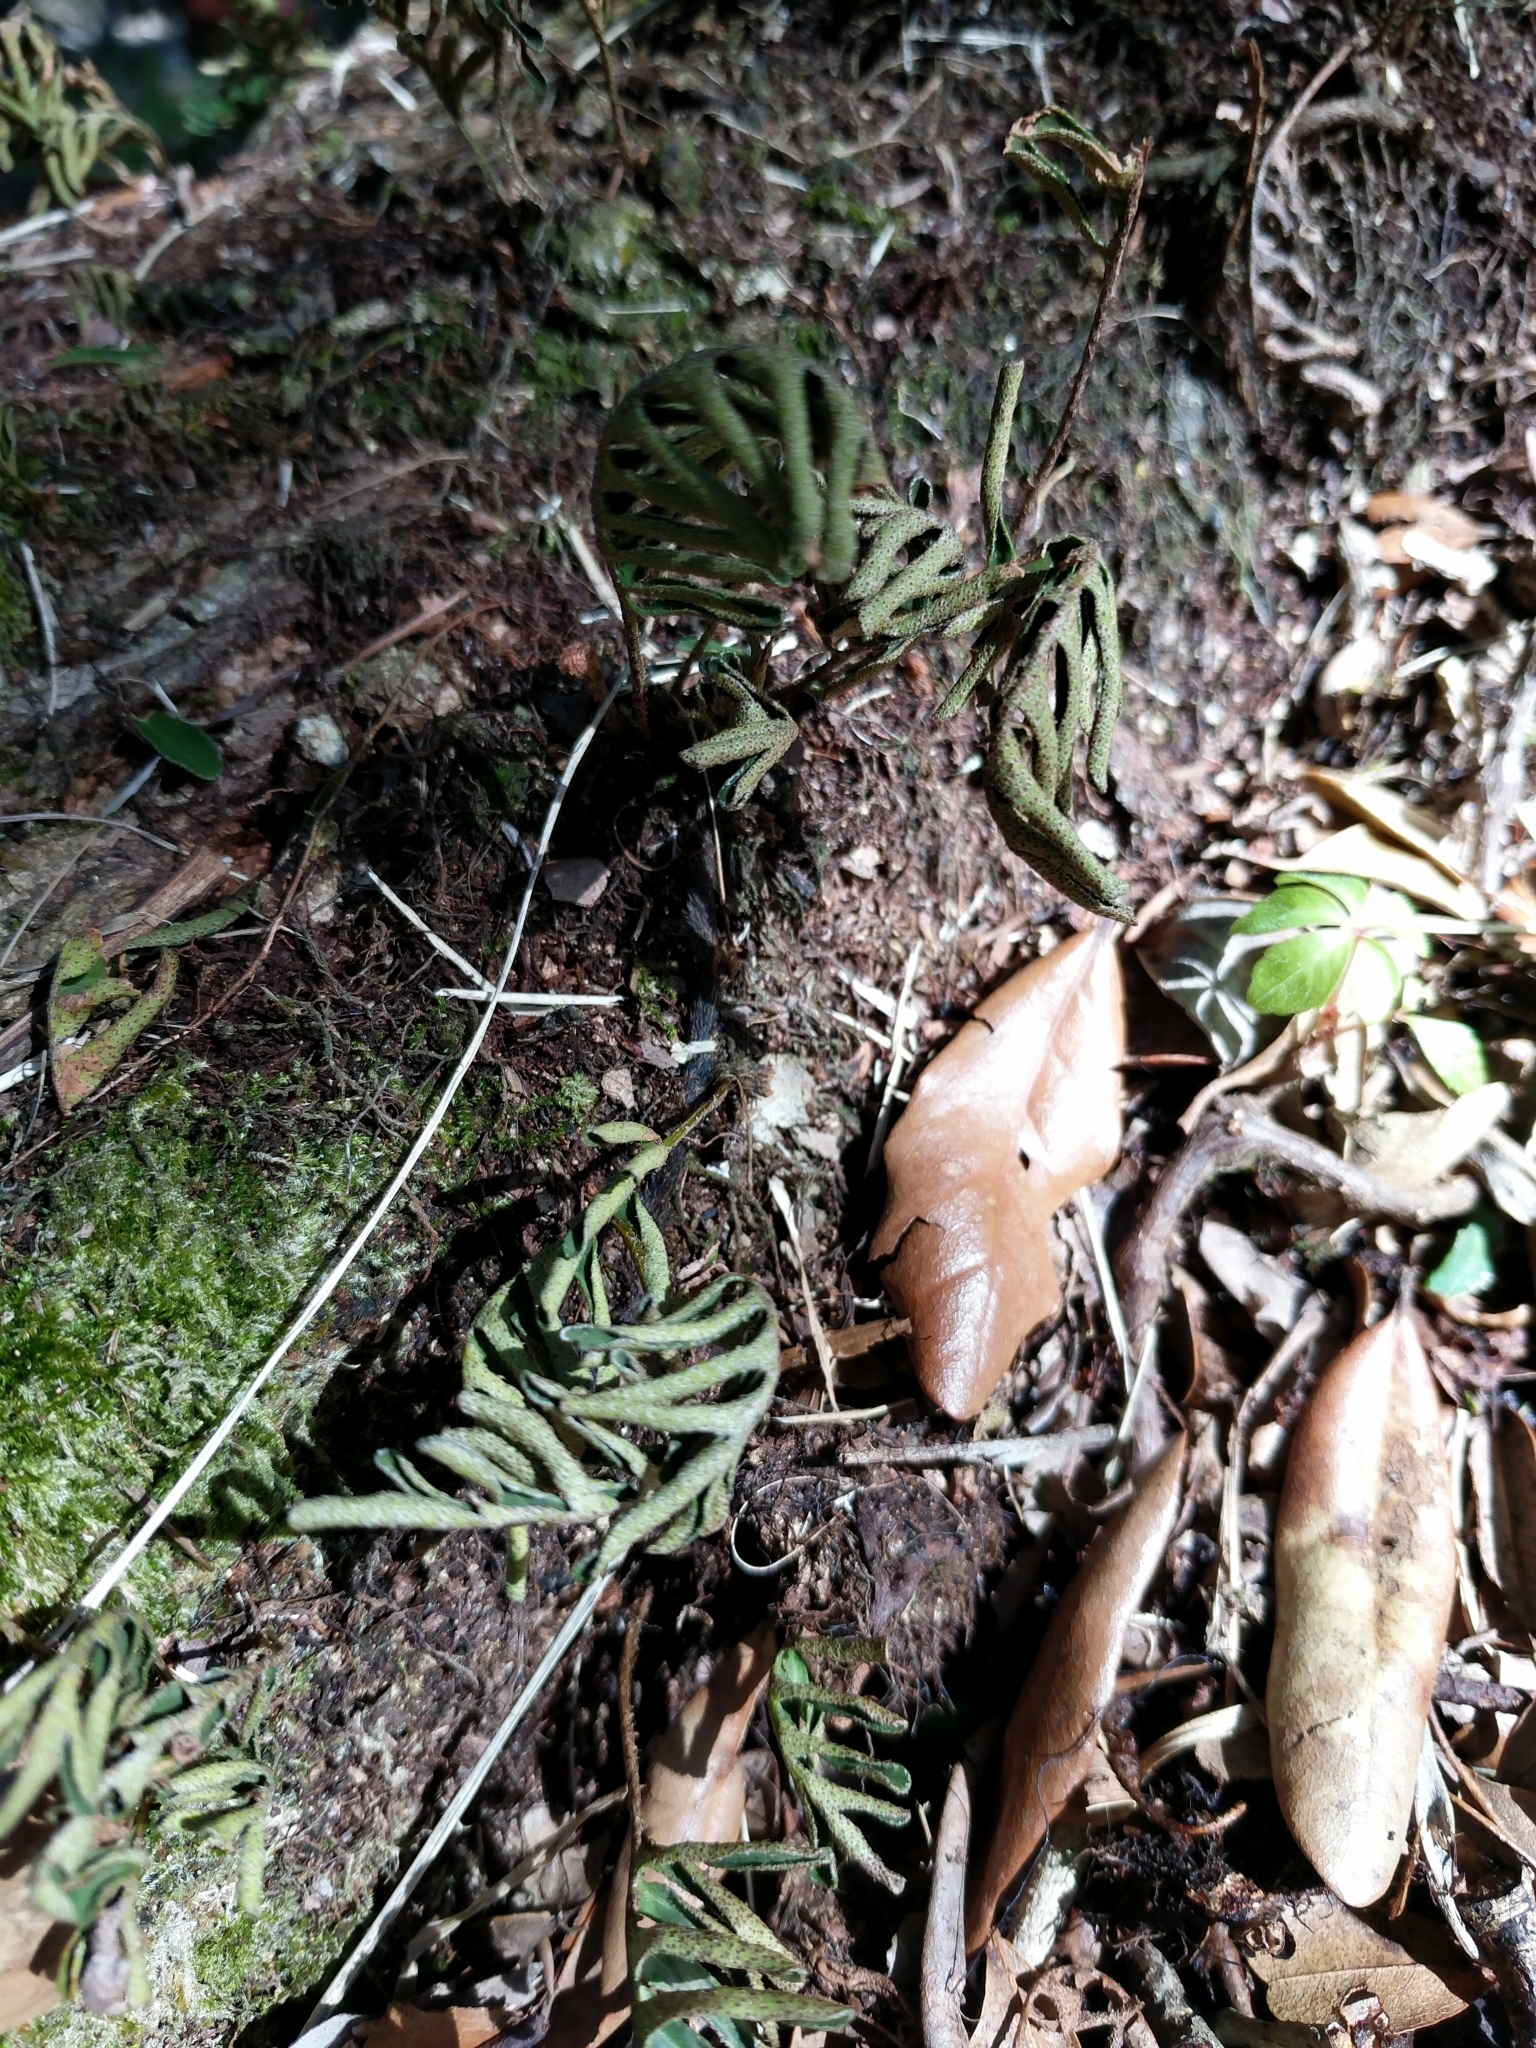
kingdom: Plantae
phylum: Tracheophyta
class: Polypodiopsida
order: Polypodiales
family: Polypodiaceae
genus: Pleopeltis
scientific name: Pleopeltis michauxiana
